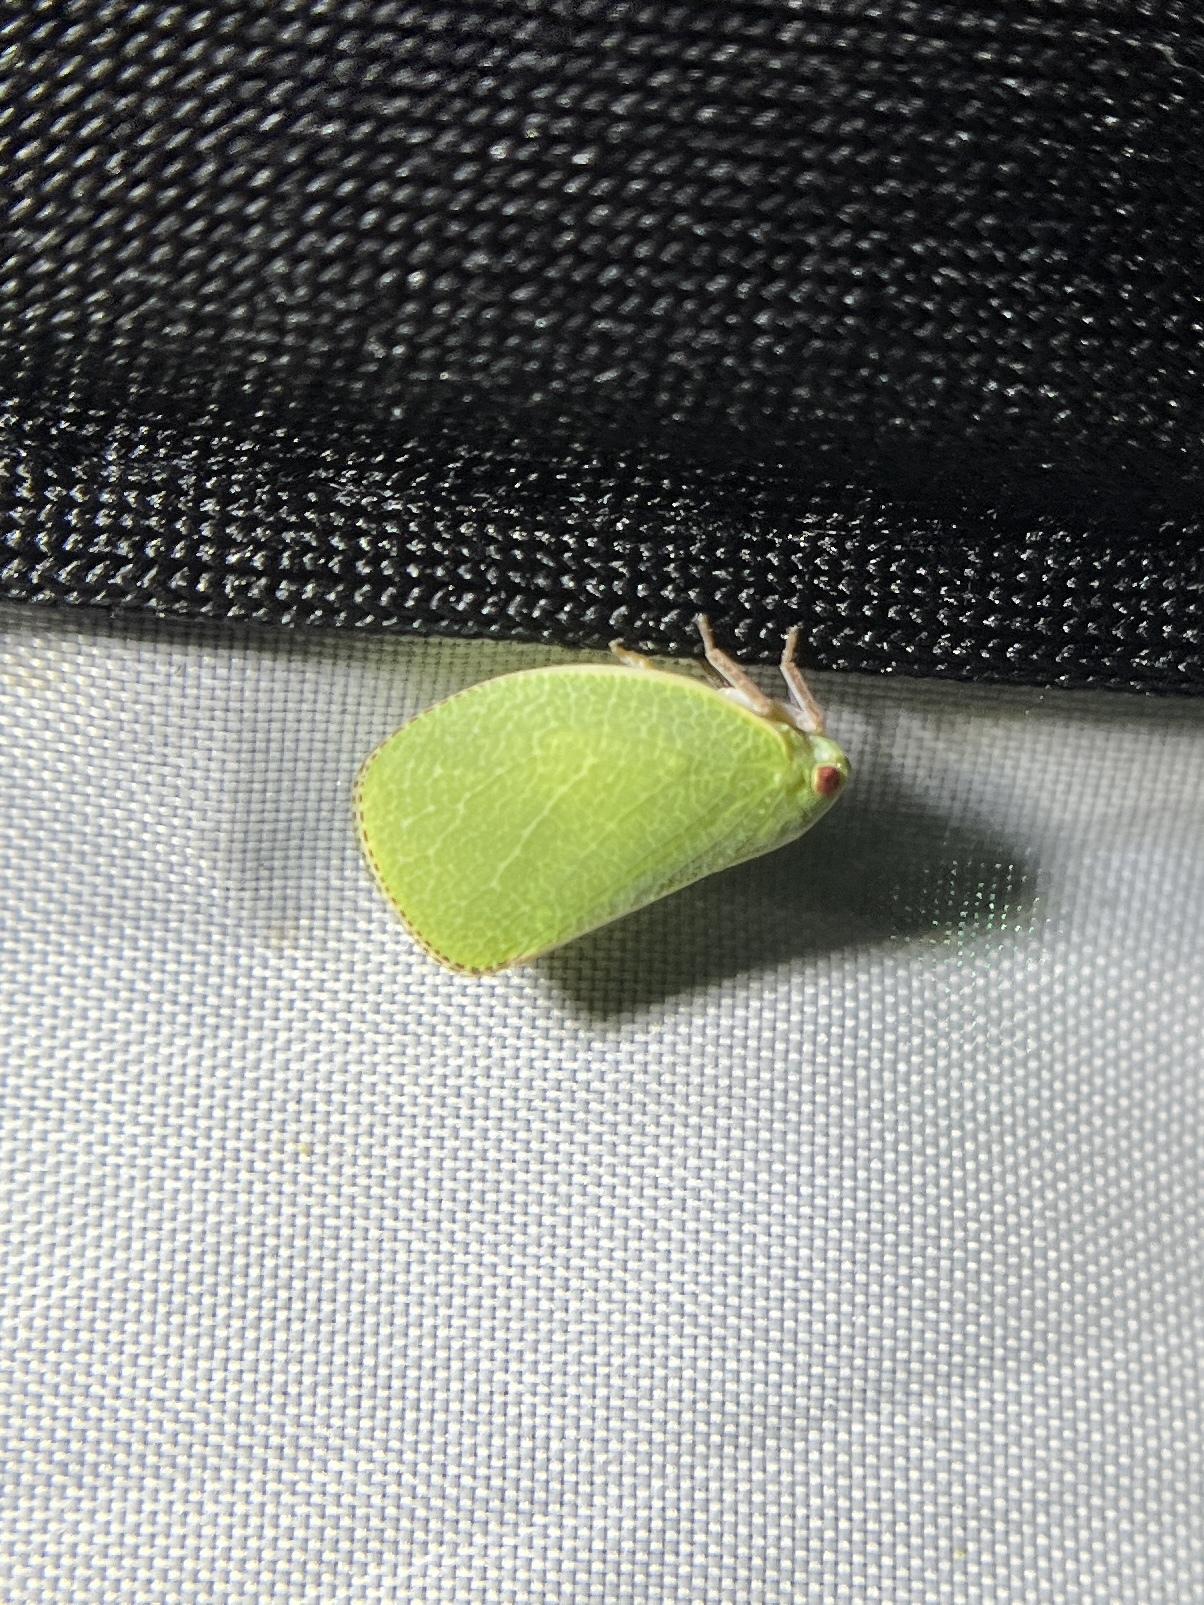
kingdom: Animalia
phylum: Arthropoda
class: Insecta
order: Hemiptera
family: Acanaloniidae
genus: Acanalonia
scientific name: Acanalonia servillei
